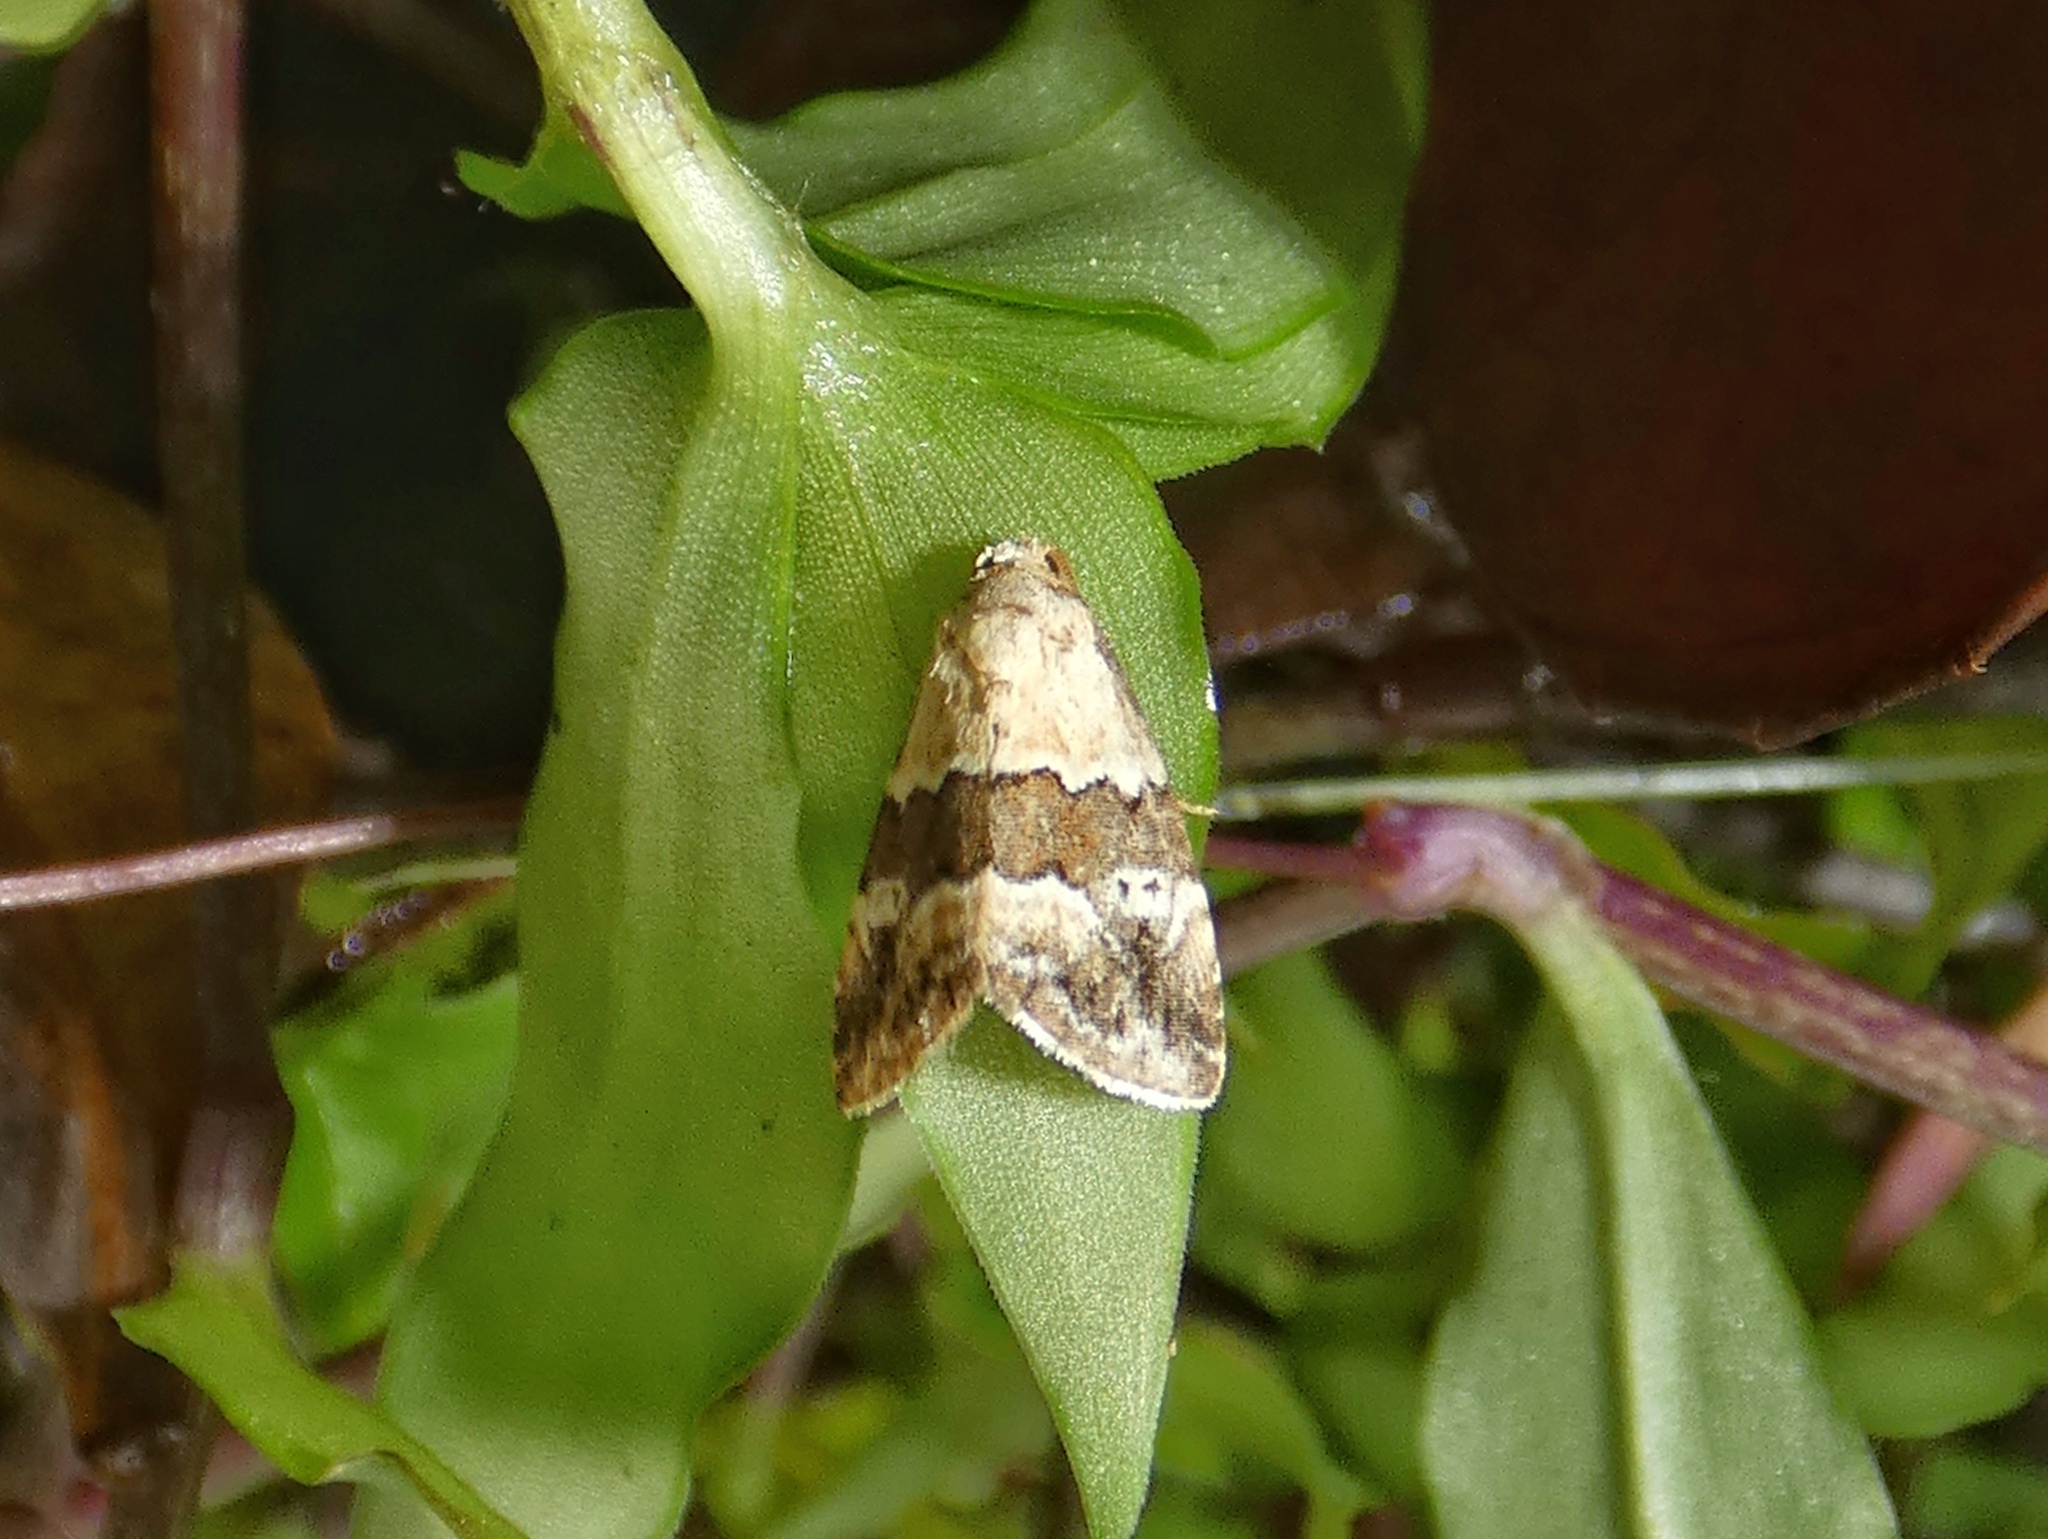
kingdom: Animalia
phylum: Arthropoda
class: Insecta
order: Lepidoptera
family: Noctuidae
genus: Maliattha
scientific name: Maliattha amorpha
